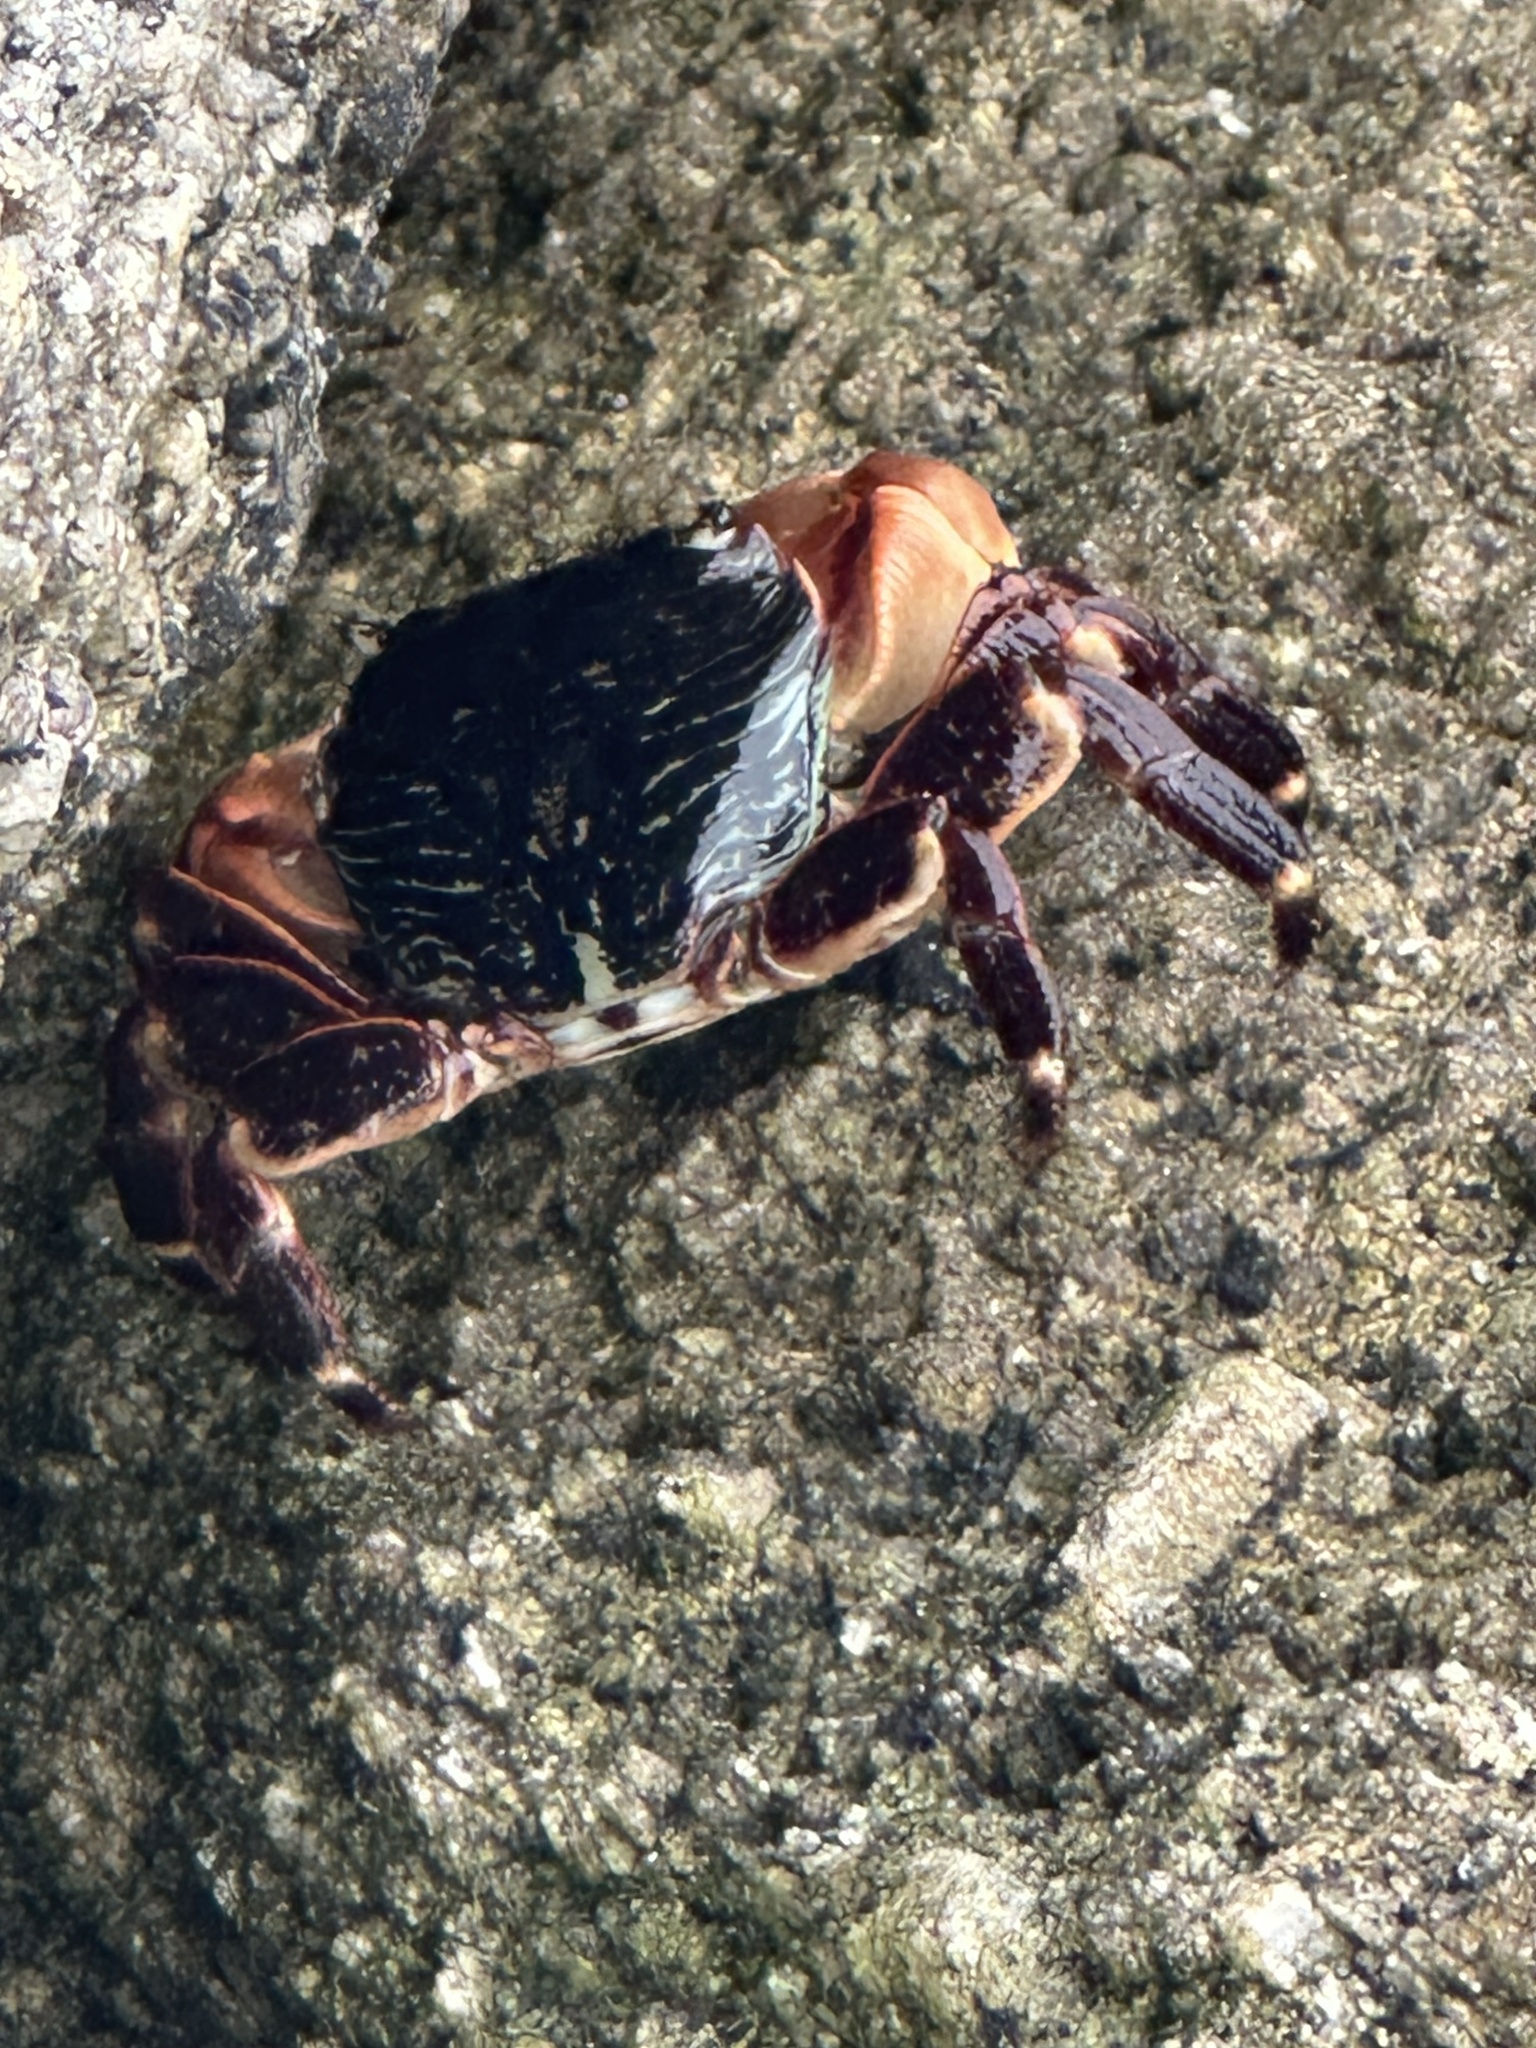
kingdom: Animalia
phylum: Arthropoda
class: Malacostraca
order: Decapoda
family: Grapsidae
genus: Pachygrapsus
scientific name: Pachygrapsus crassipes
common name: Striped shore crab
